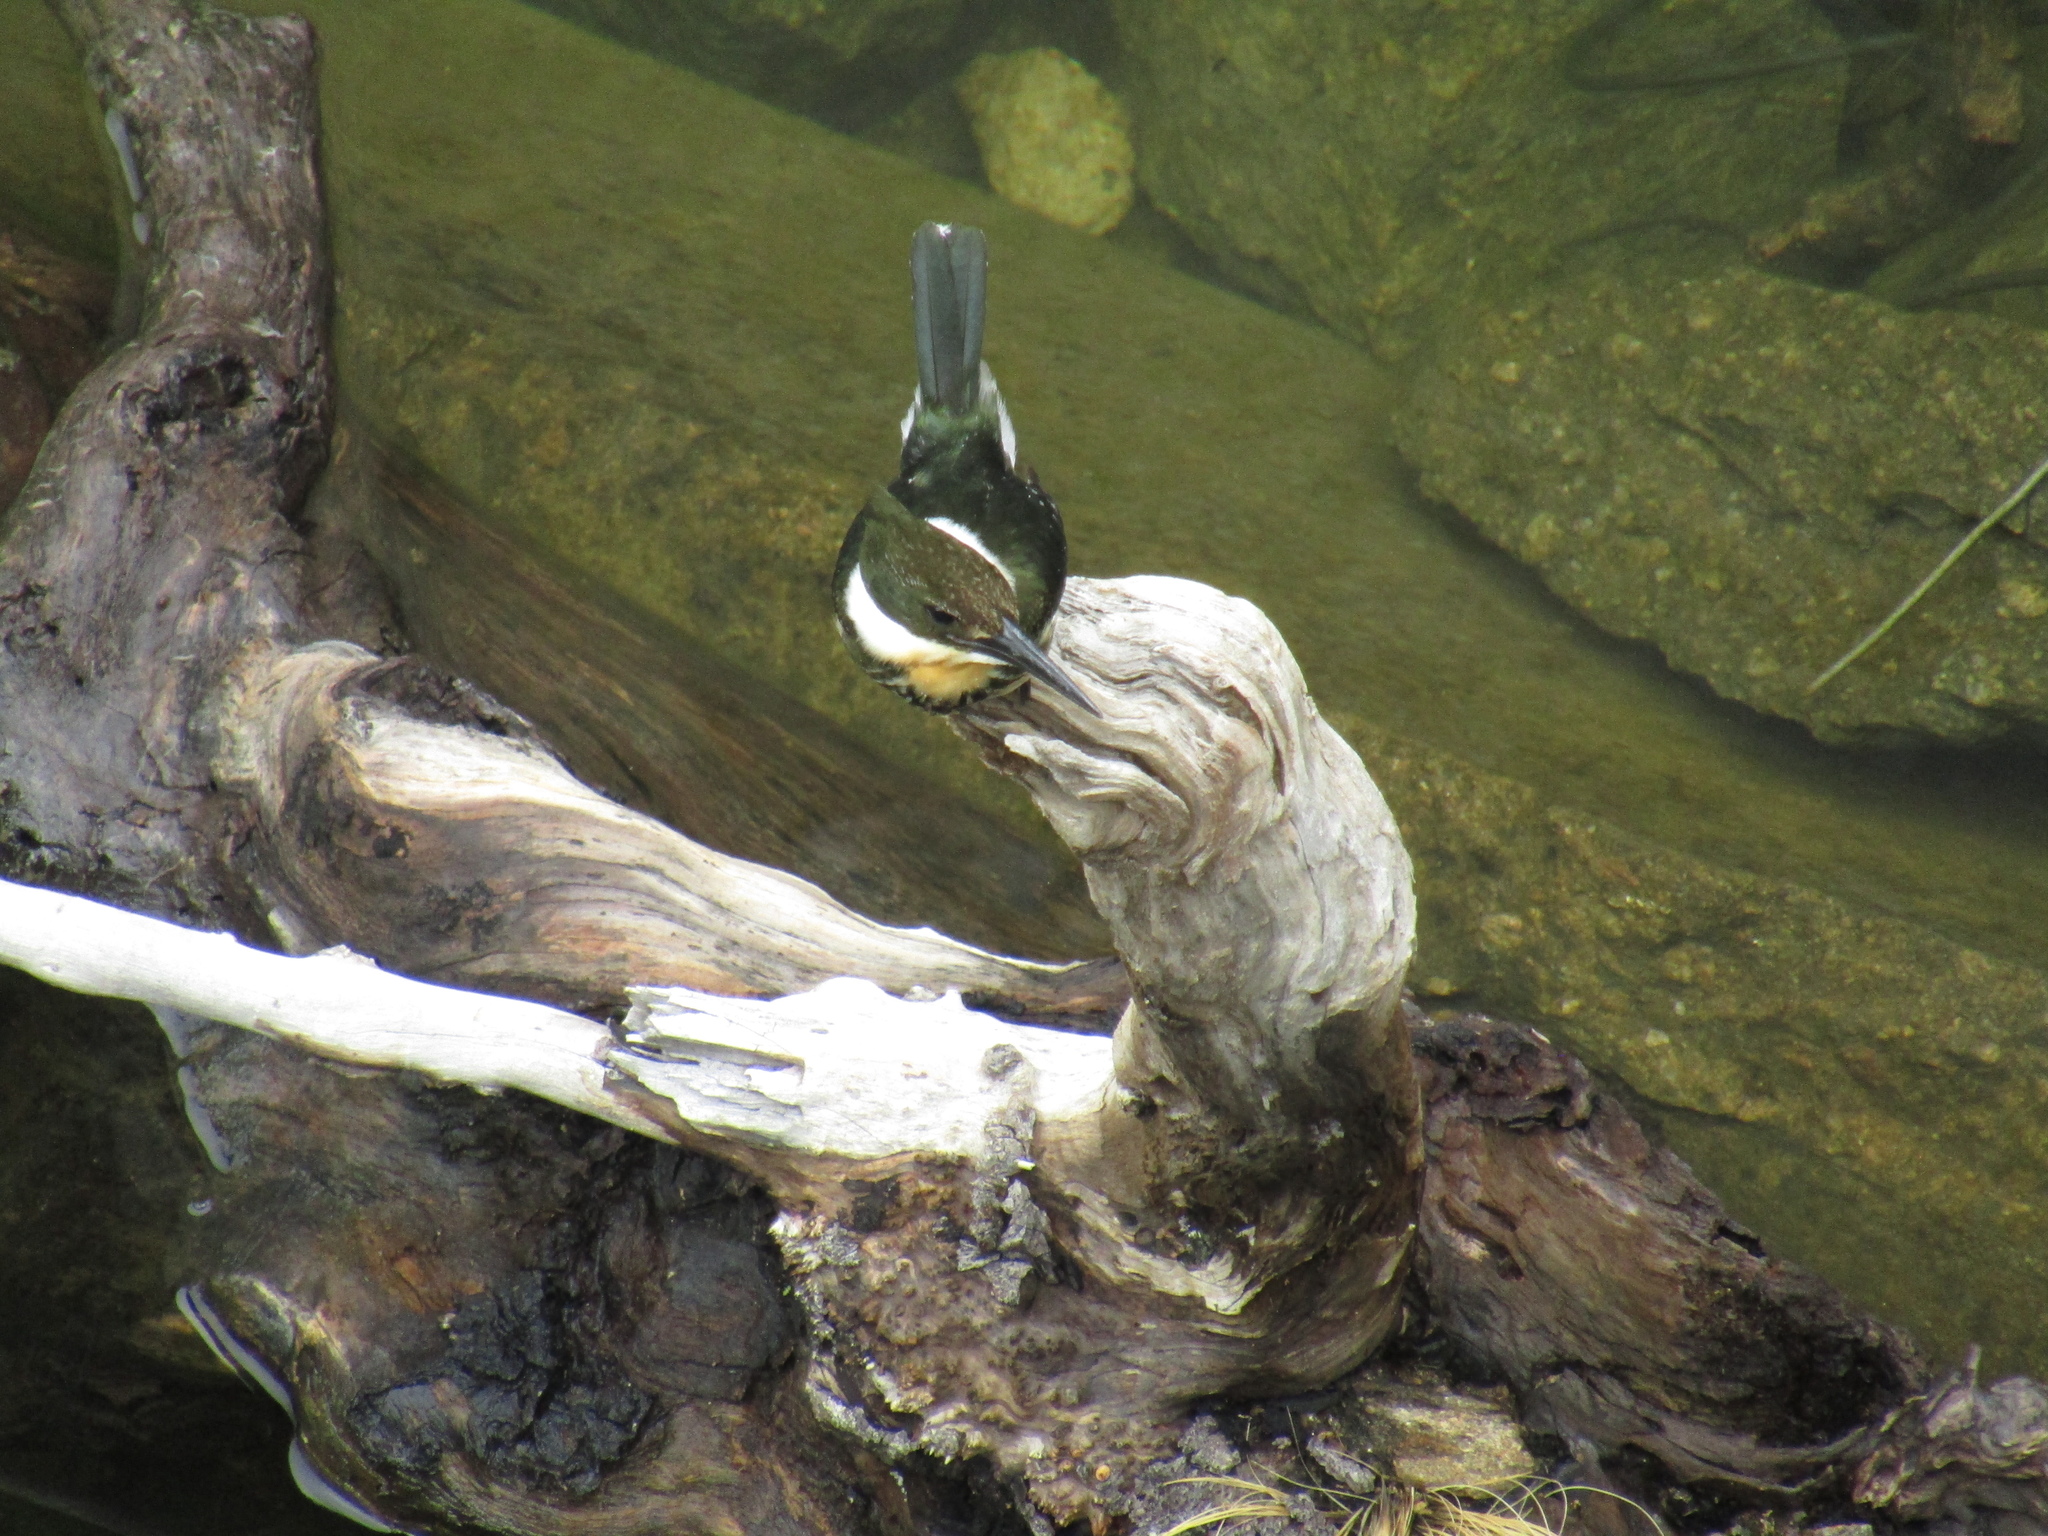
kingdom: Animalia
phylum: Chordata
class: Aves
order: Coraciiformes
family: Alcedinidae
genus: Chloroceryle
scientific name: Chloroceryle americana
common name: Green kingfisher
